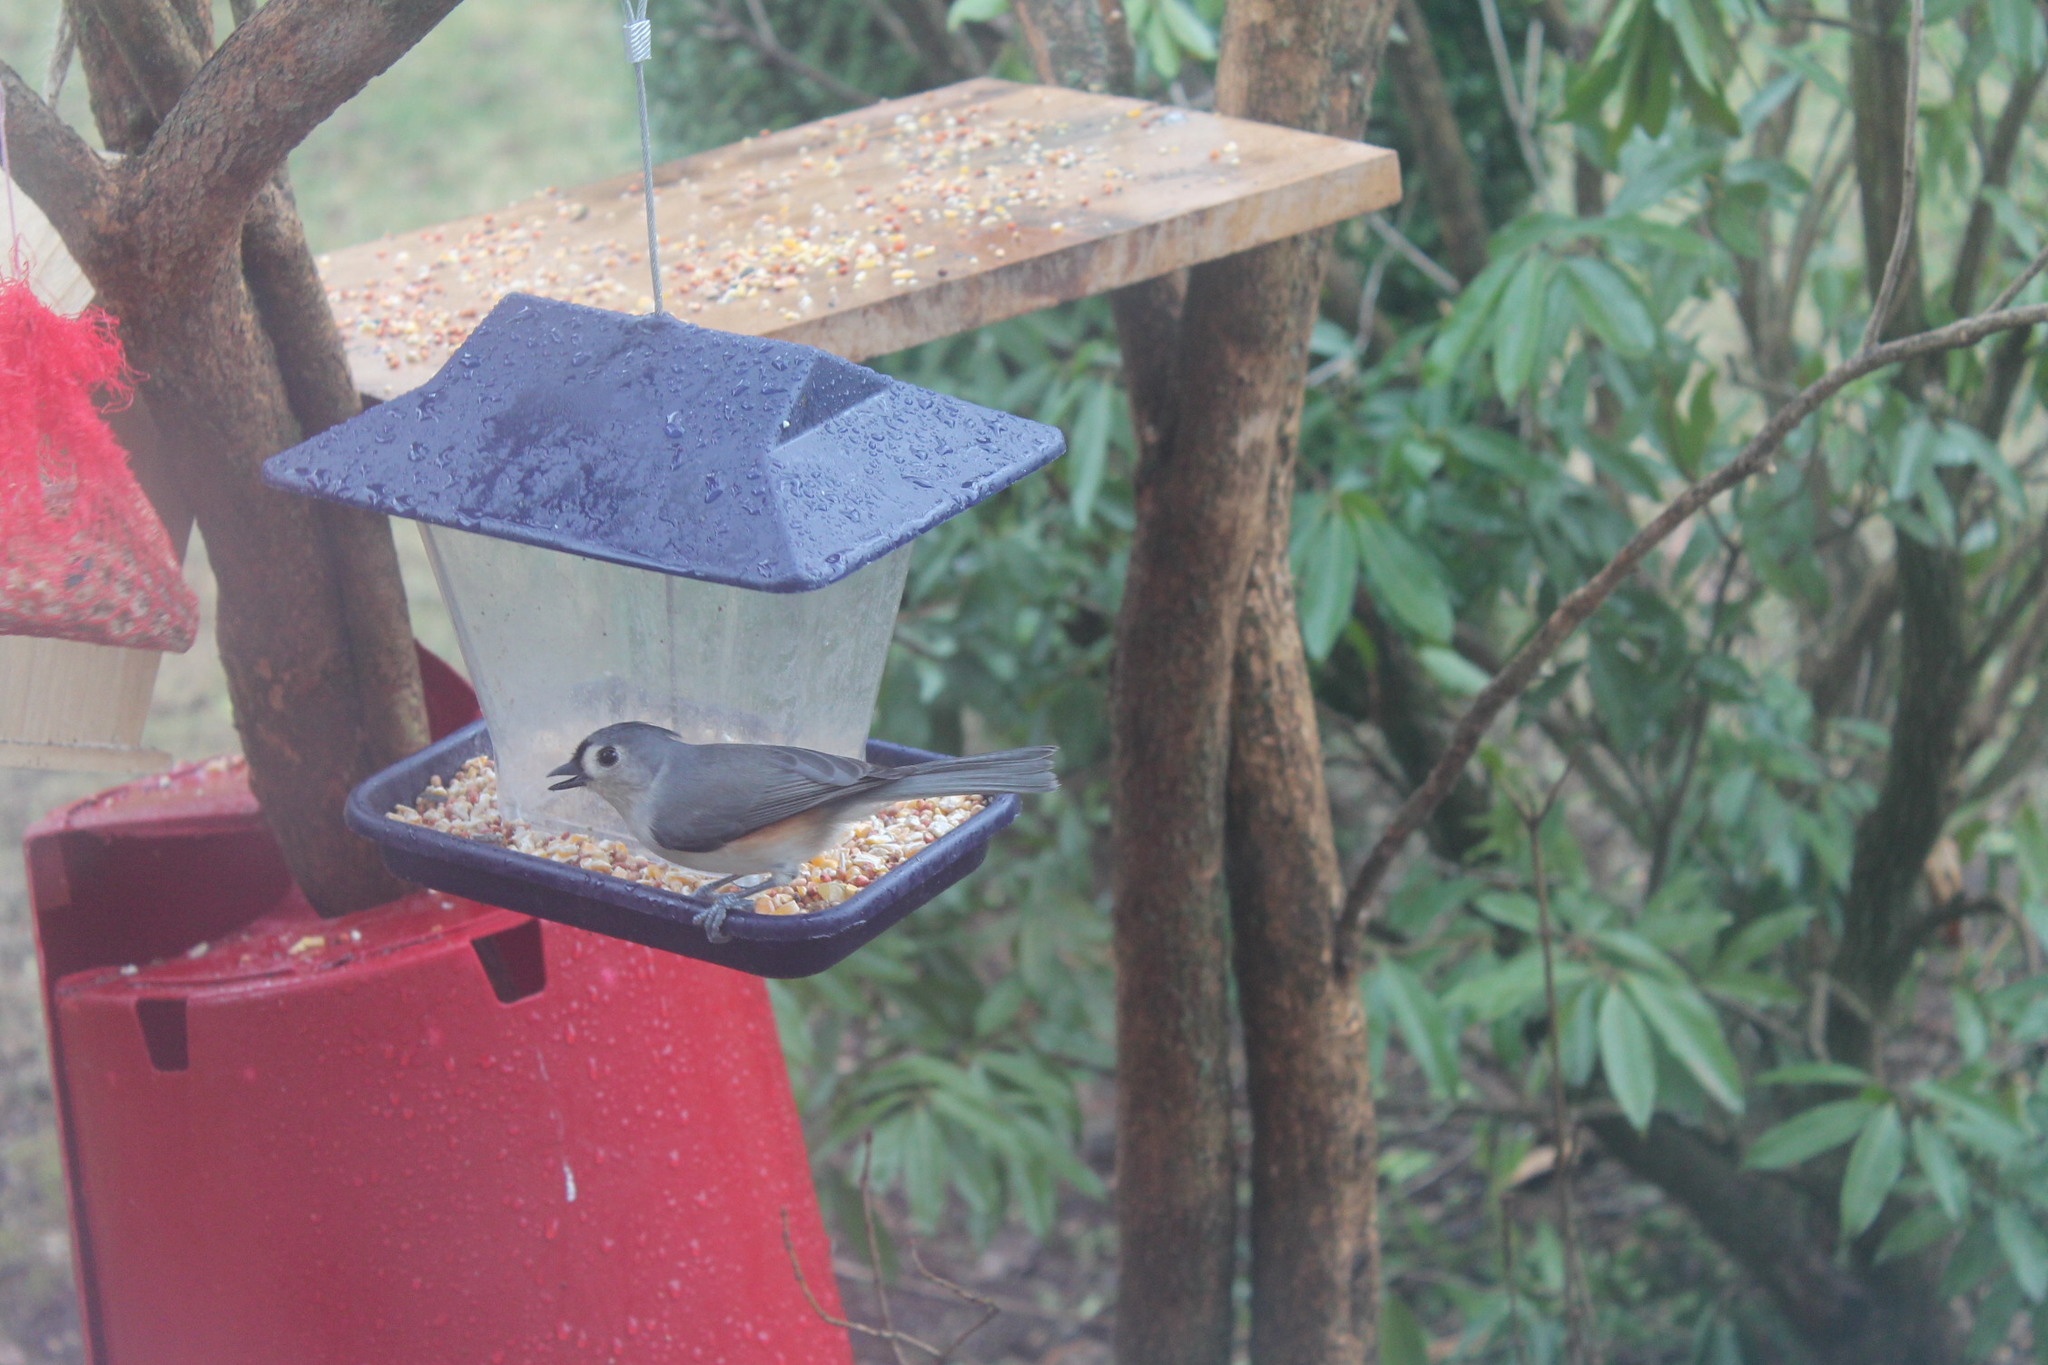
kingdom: Animalia
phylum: Chordata
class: Aves
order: Passeriformes
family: Paridae
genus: Baeolophus
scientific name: Baeolophus bicolor
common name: Tufted titmouse
